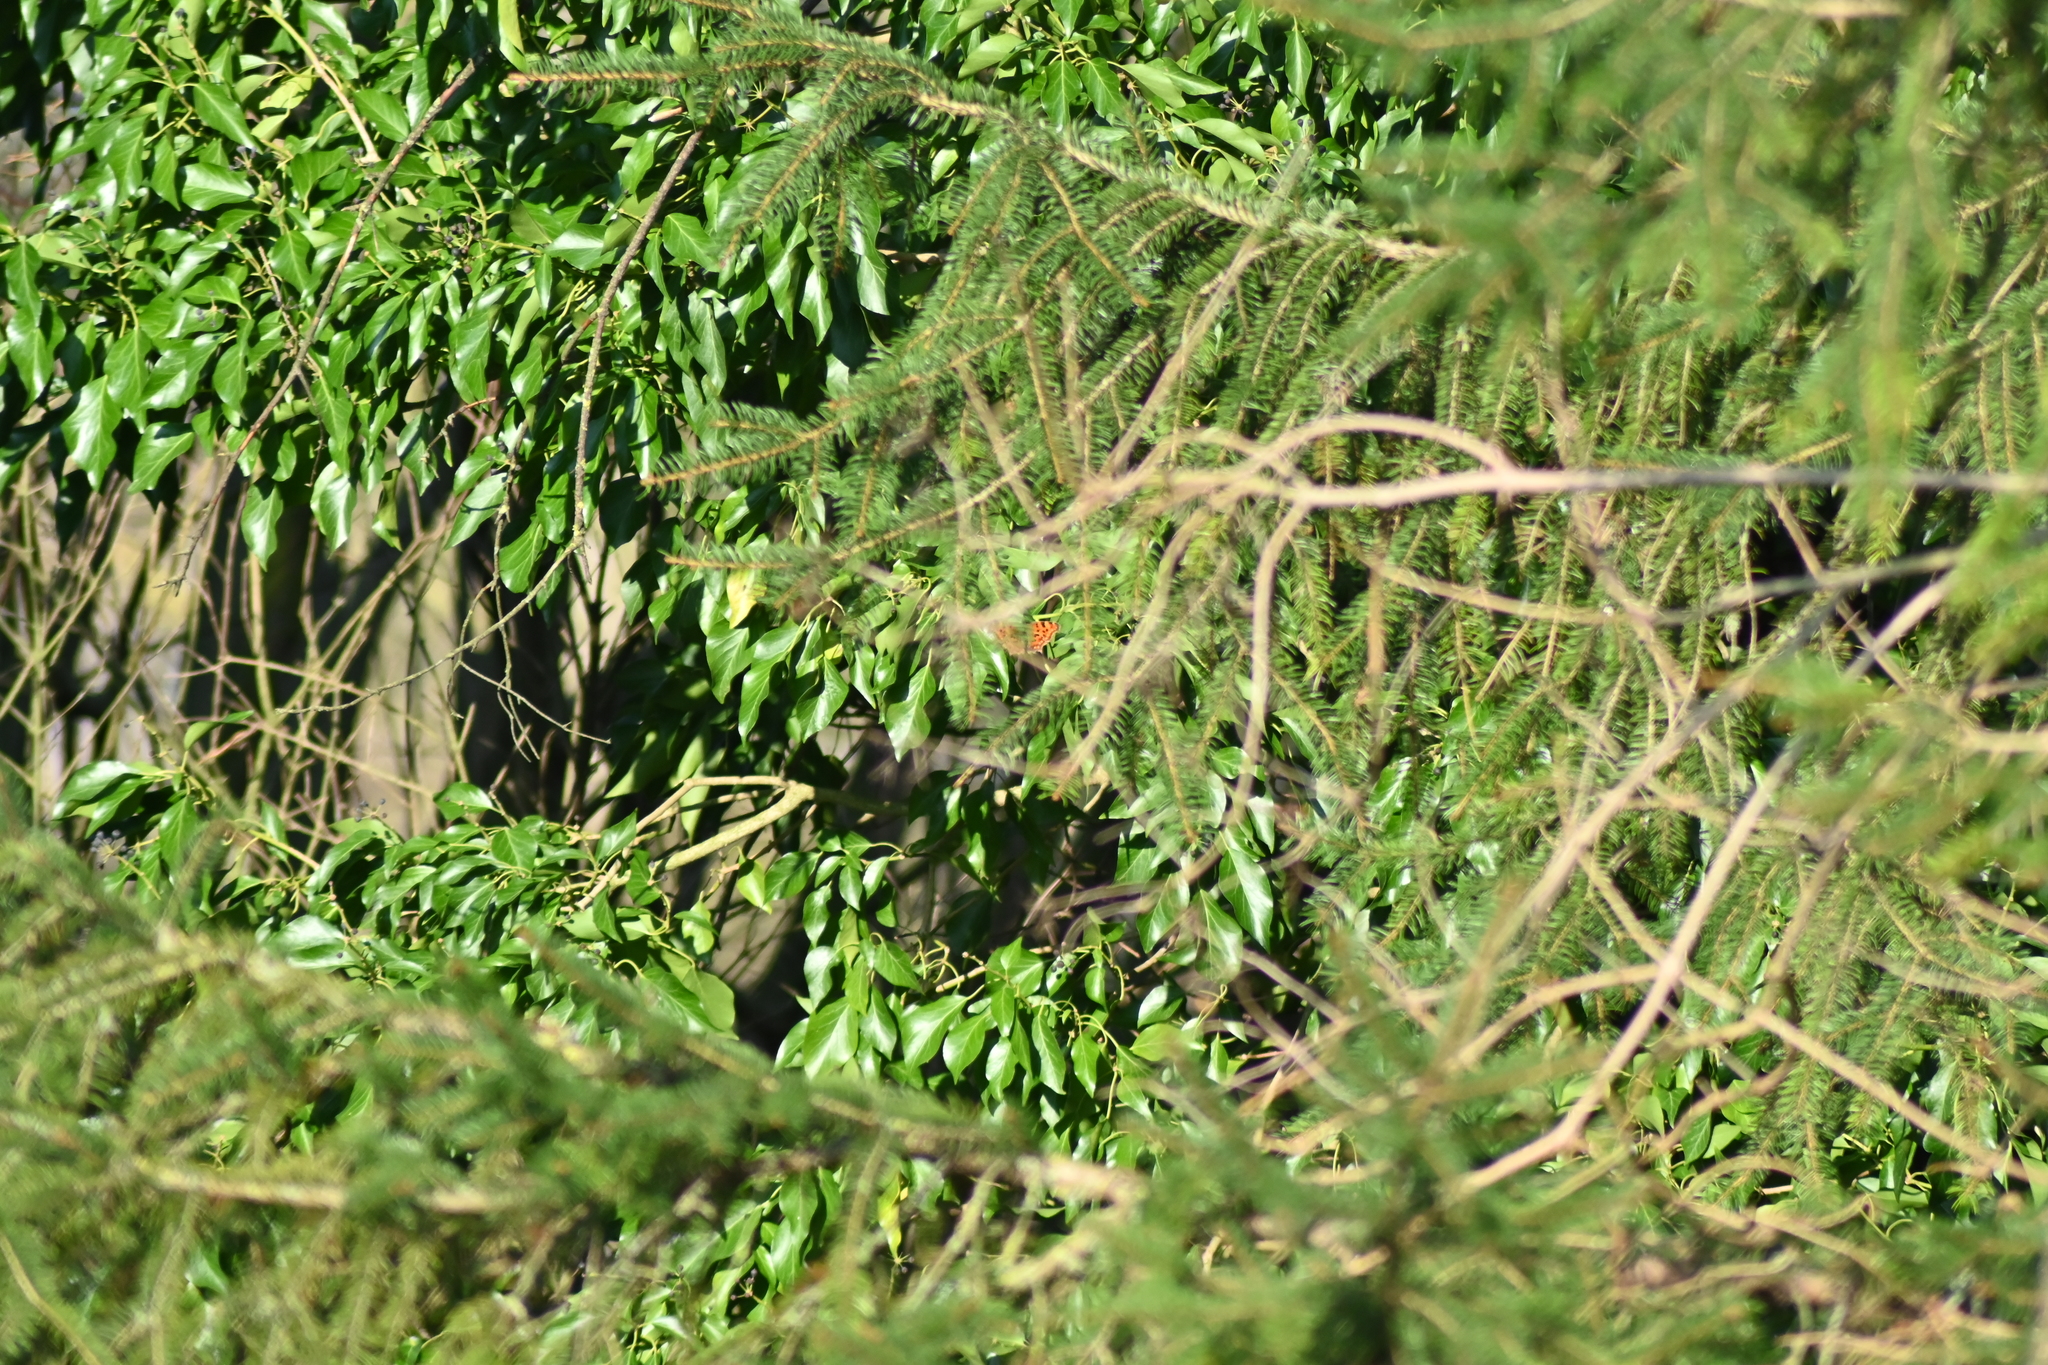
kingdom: Animalia
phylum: Arthropoda
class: Insecta
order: Lepidoptera
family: Nymphalidae
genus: Polygonia
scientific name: Polygonia c-album
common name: Comma
